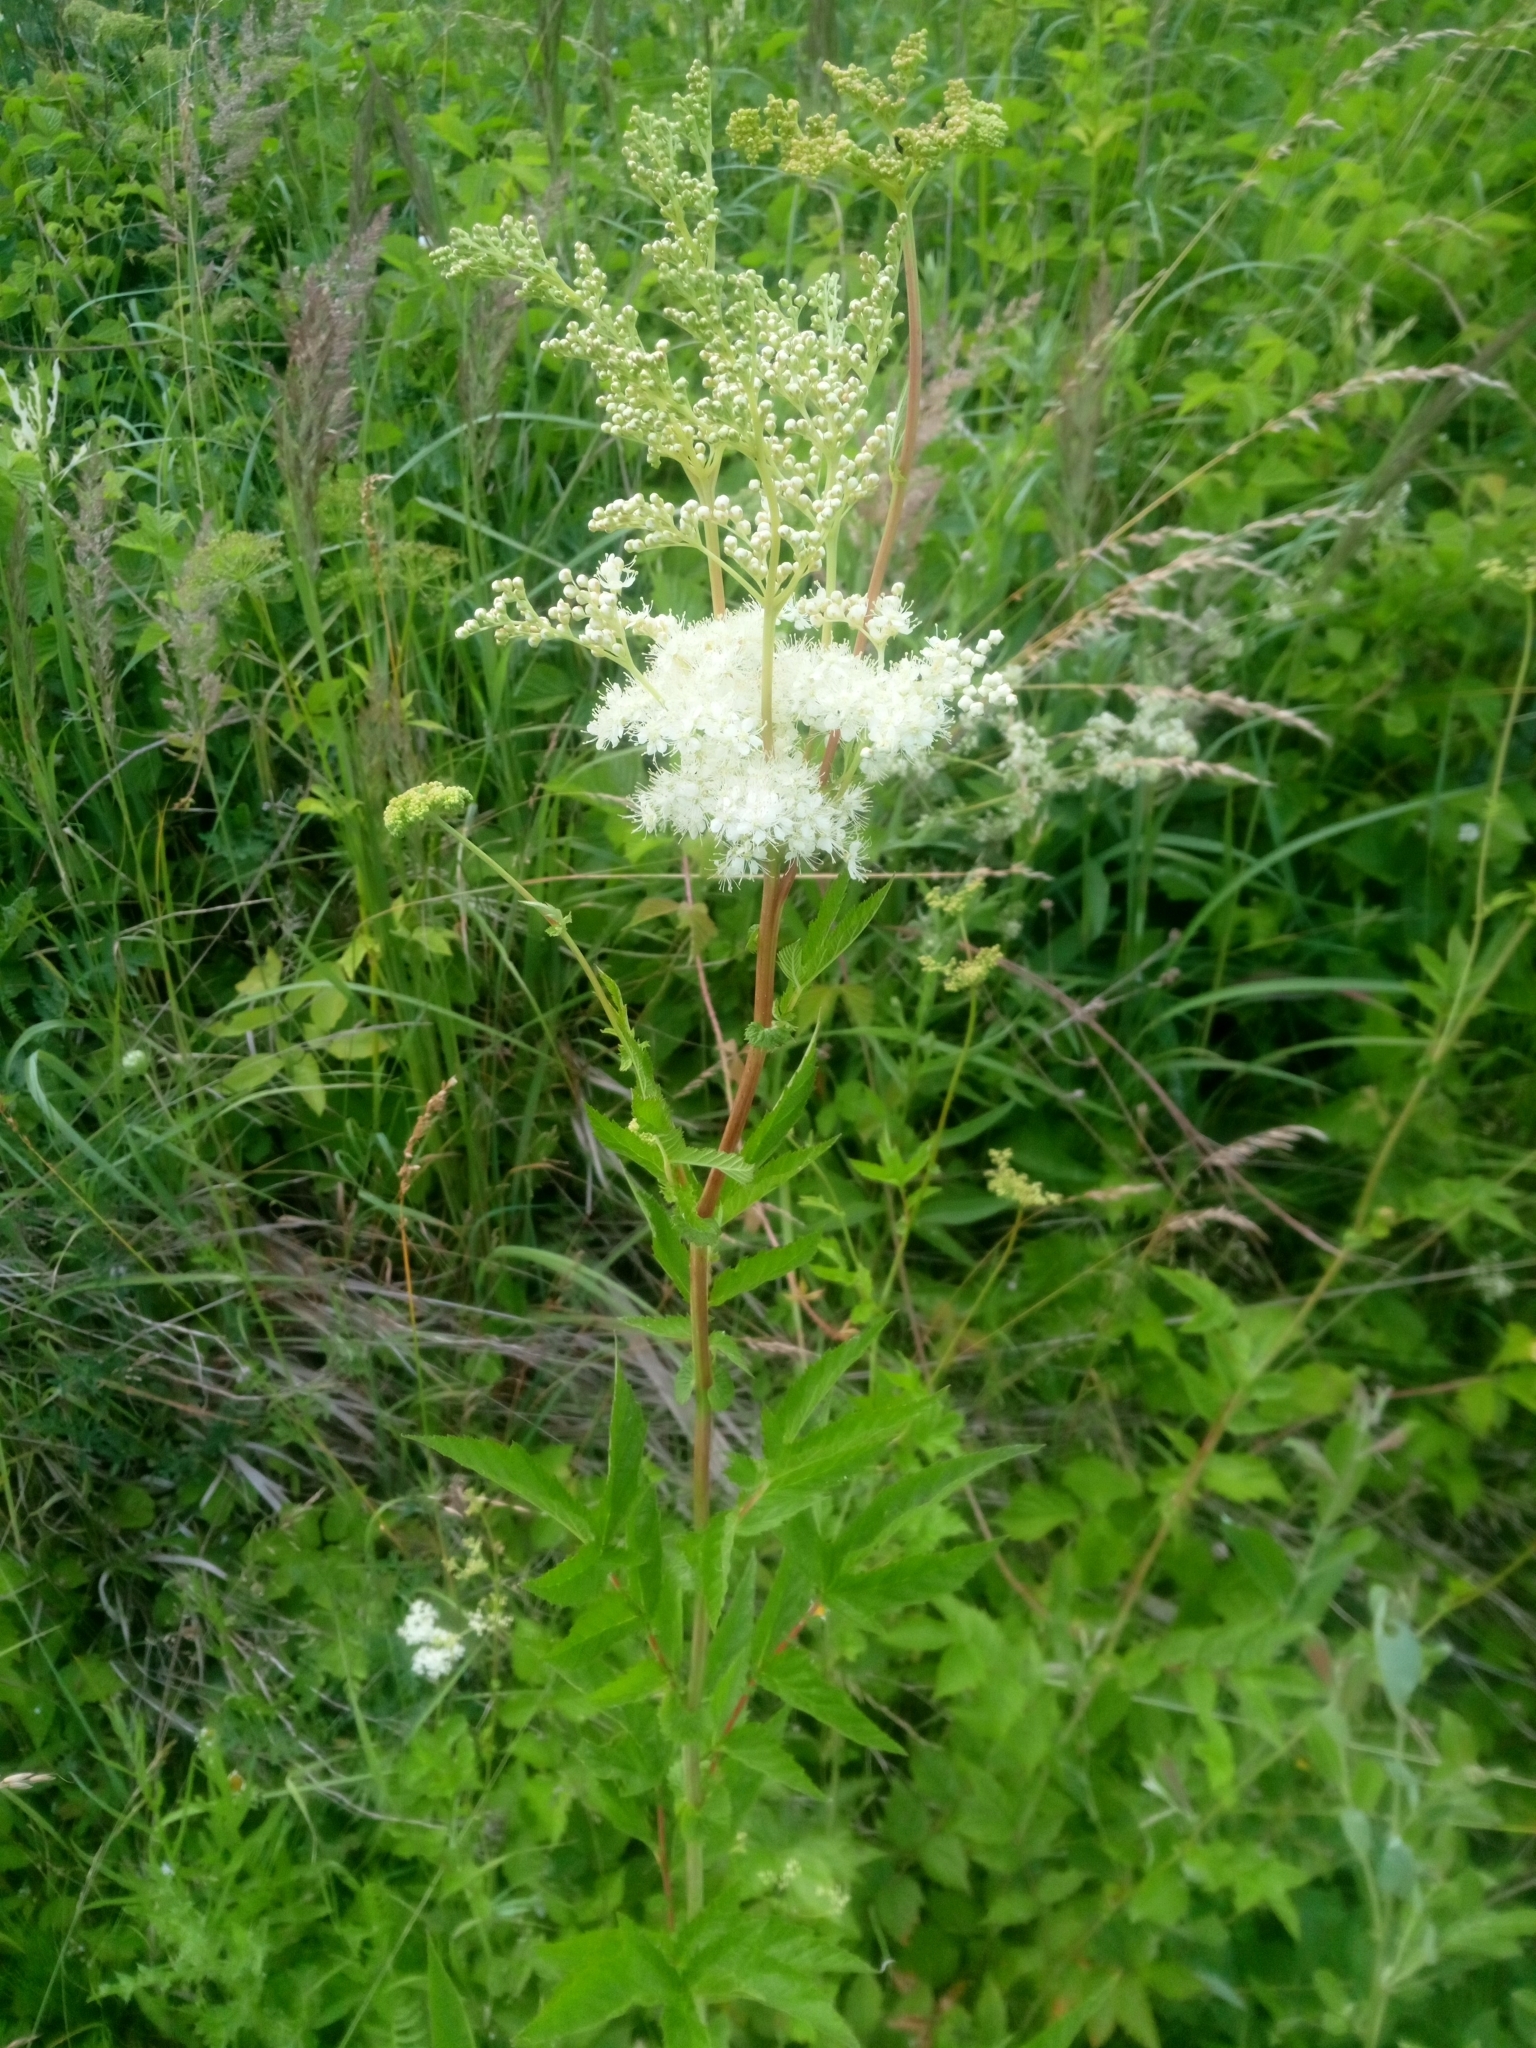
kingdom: Plantae
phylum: Tracheophyta
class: Magnoliopsida
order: Rosales
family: Rosaceae
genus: Filipendula
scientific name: Filipendula ulmaria
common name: Meadowsweet
